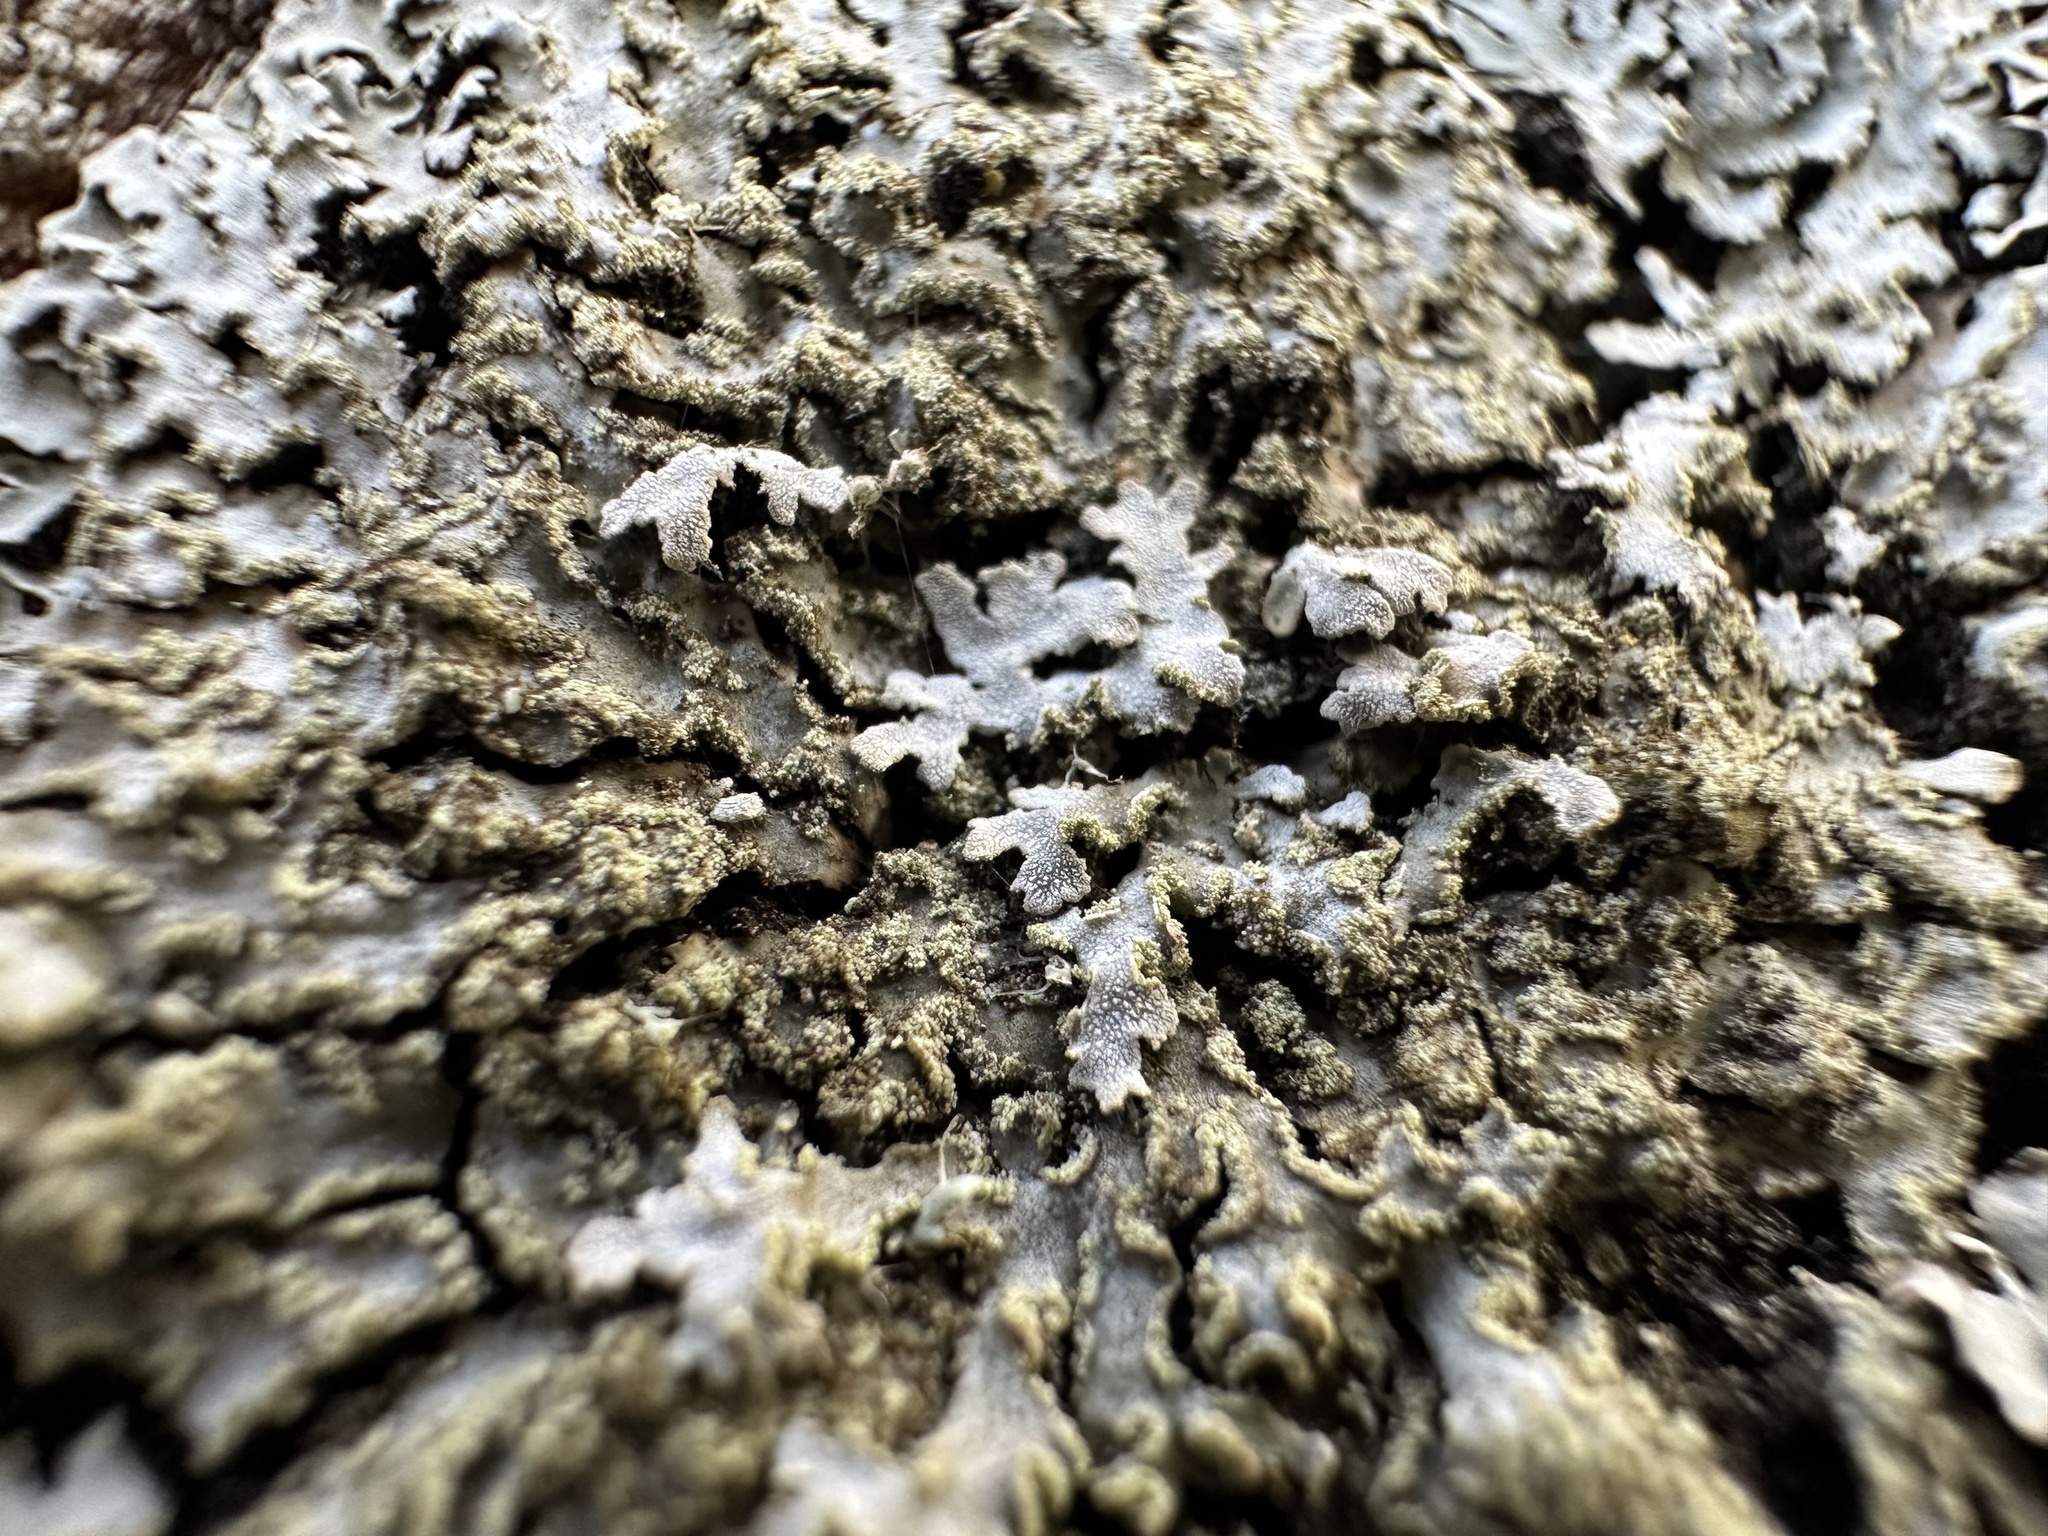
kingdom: Fungi
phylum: Ascomycota
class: Lecanoromycetes
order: Caliciales
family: Physciaceae
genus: Physconia
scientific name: Physconia enteroxantha
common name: Yellow-edged frost lichen
